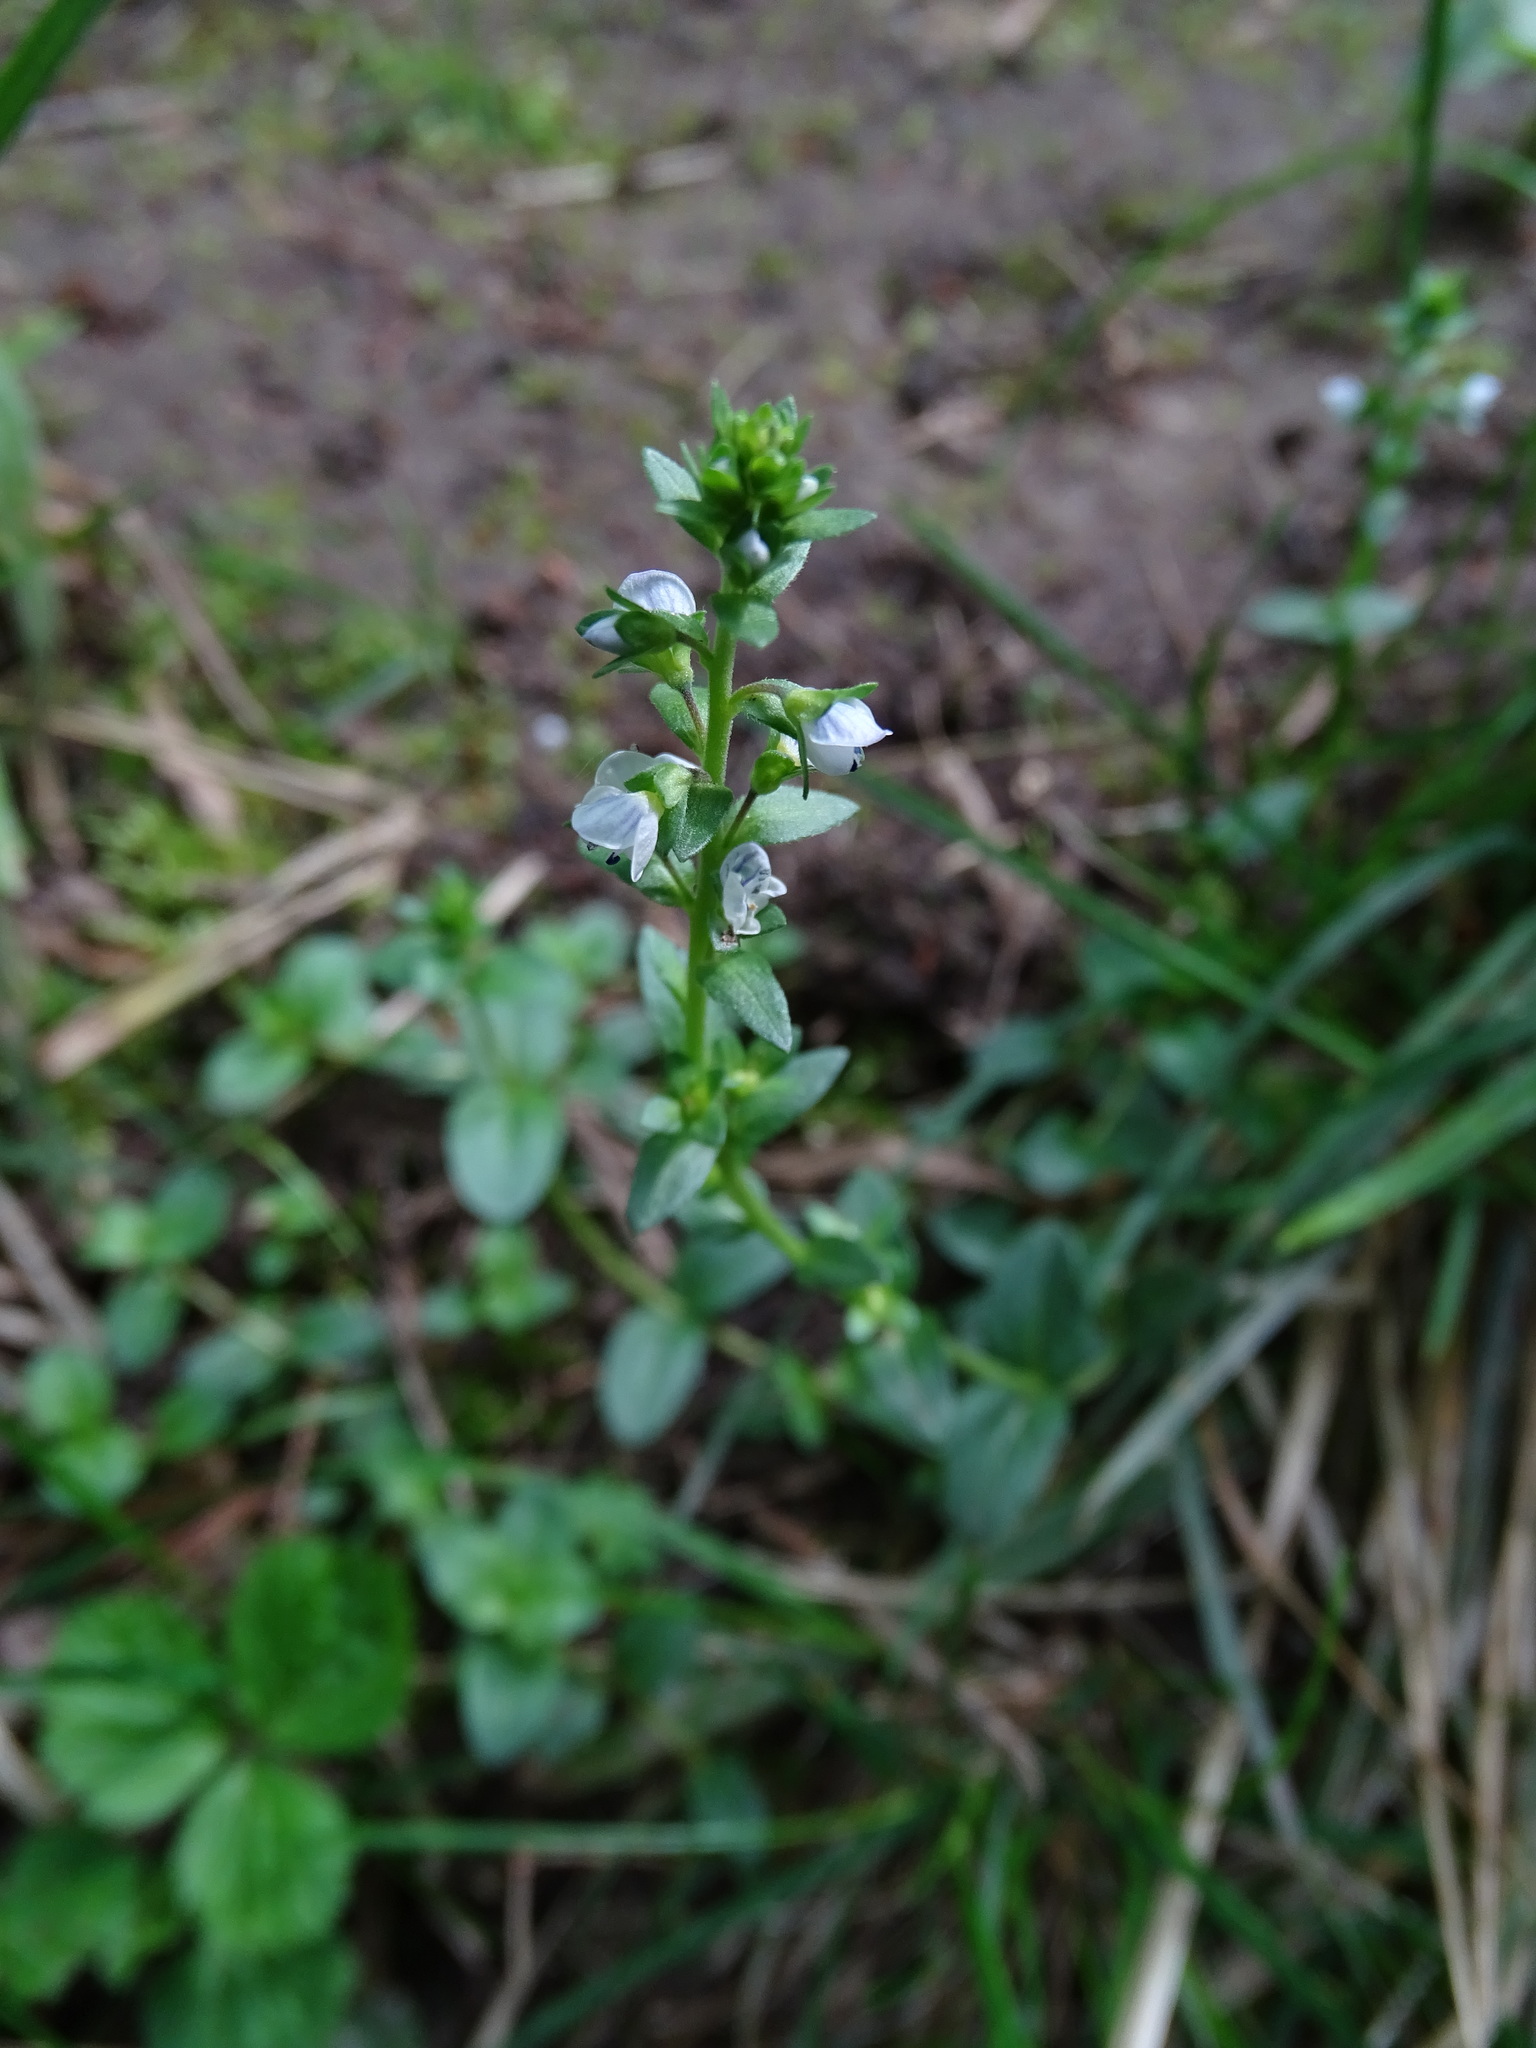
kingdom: Plantae
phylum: Tracheophyta
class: Magnoliopsida
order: Lamiales
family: Plantaginaceae
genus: Veronica
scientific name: Veronica serpyllifolia
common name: Thyme-leaved speedwell
